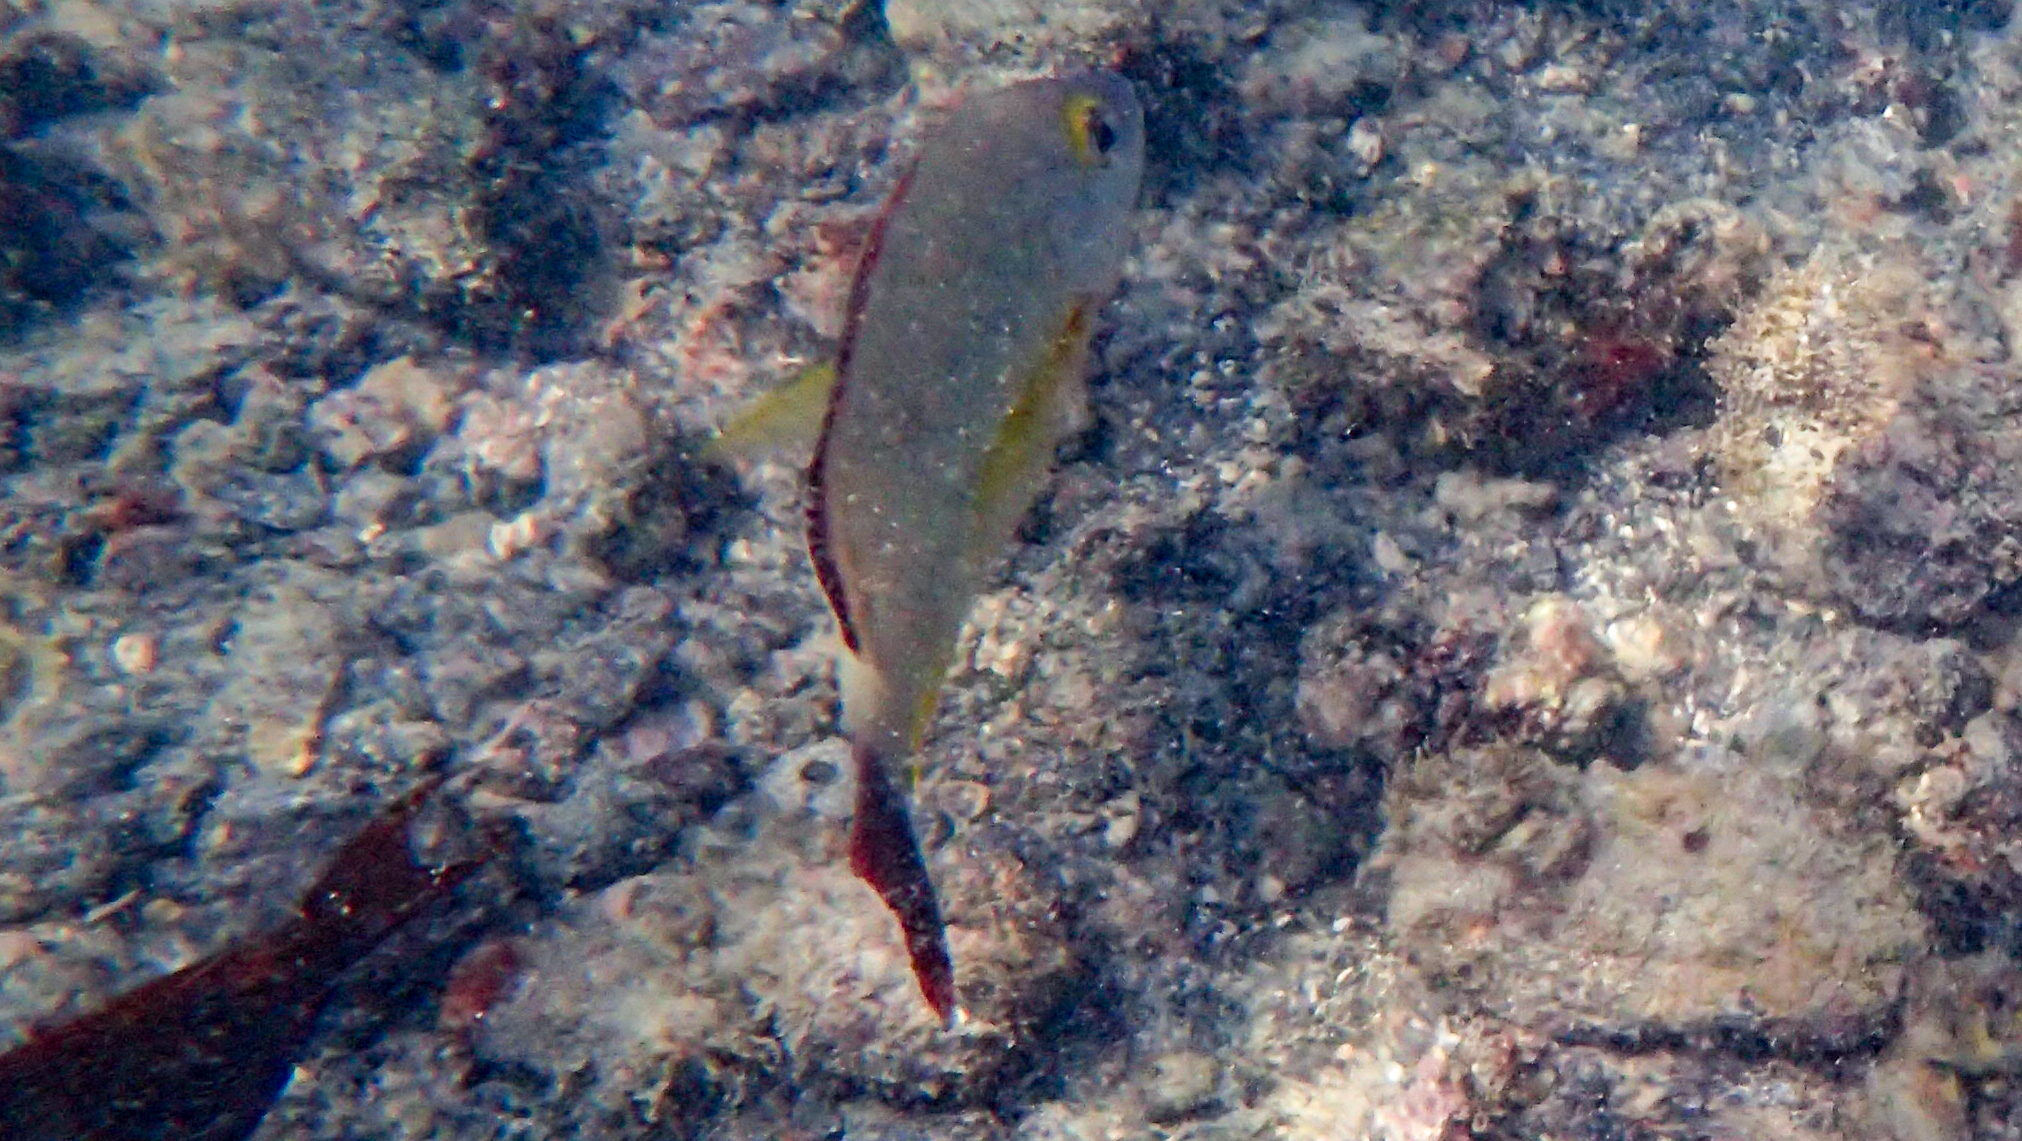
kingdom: Animalia
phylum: Chordata
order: Perciformes
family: Lutjanidae
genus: Lutjanus
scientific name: Lutjanus fulvus
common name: Blacktail snapper
